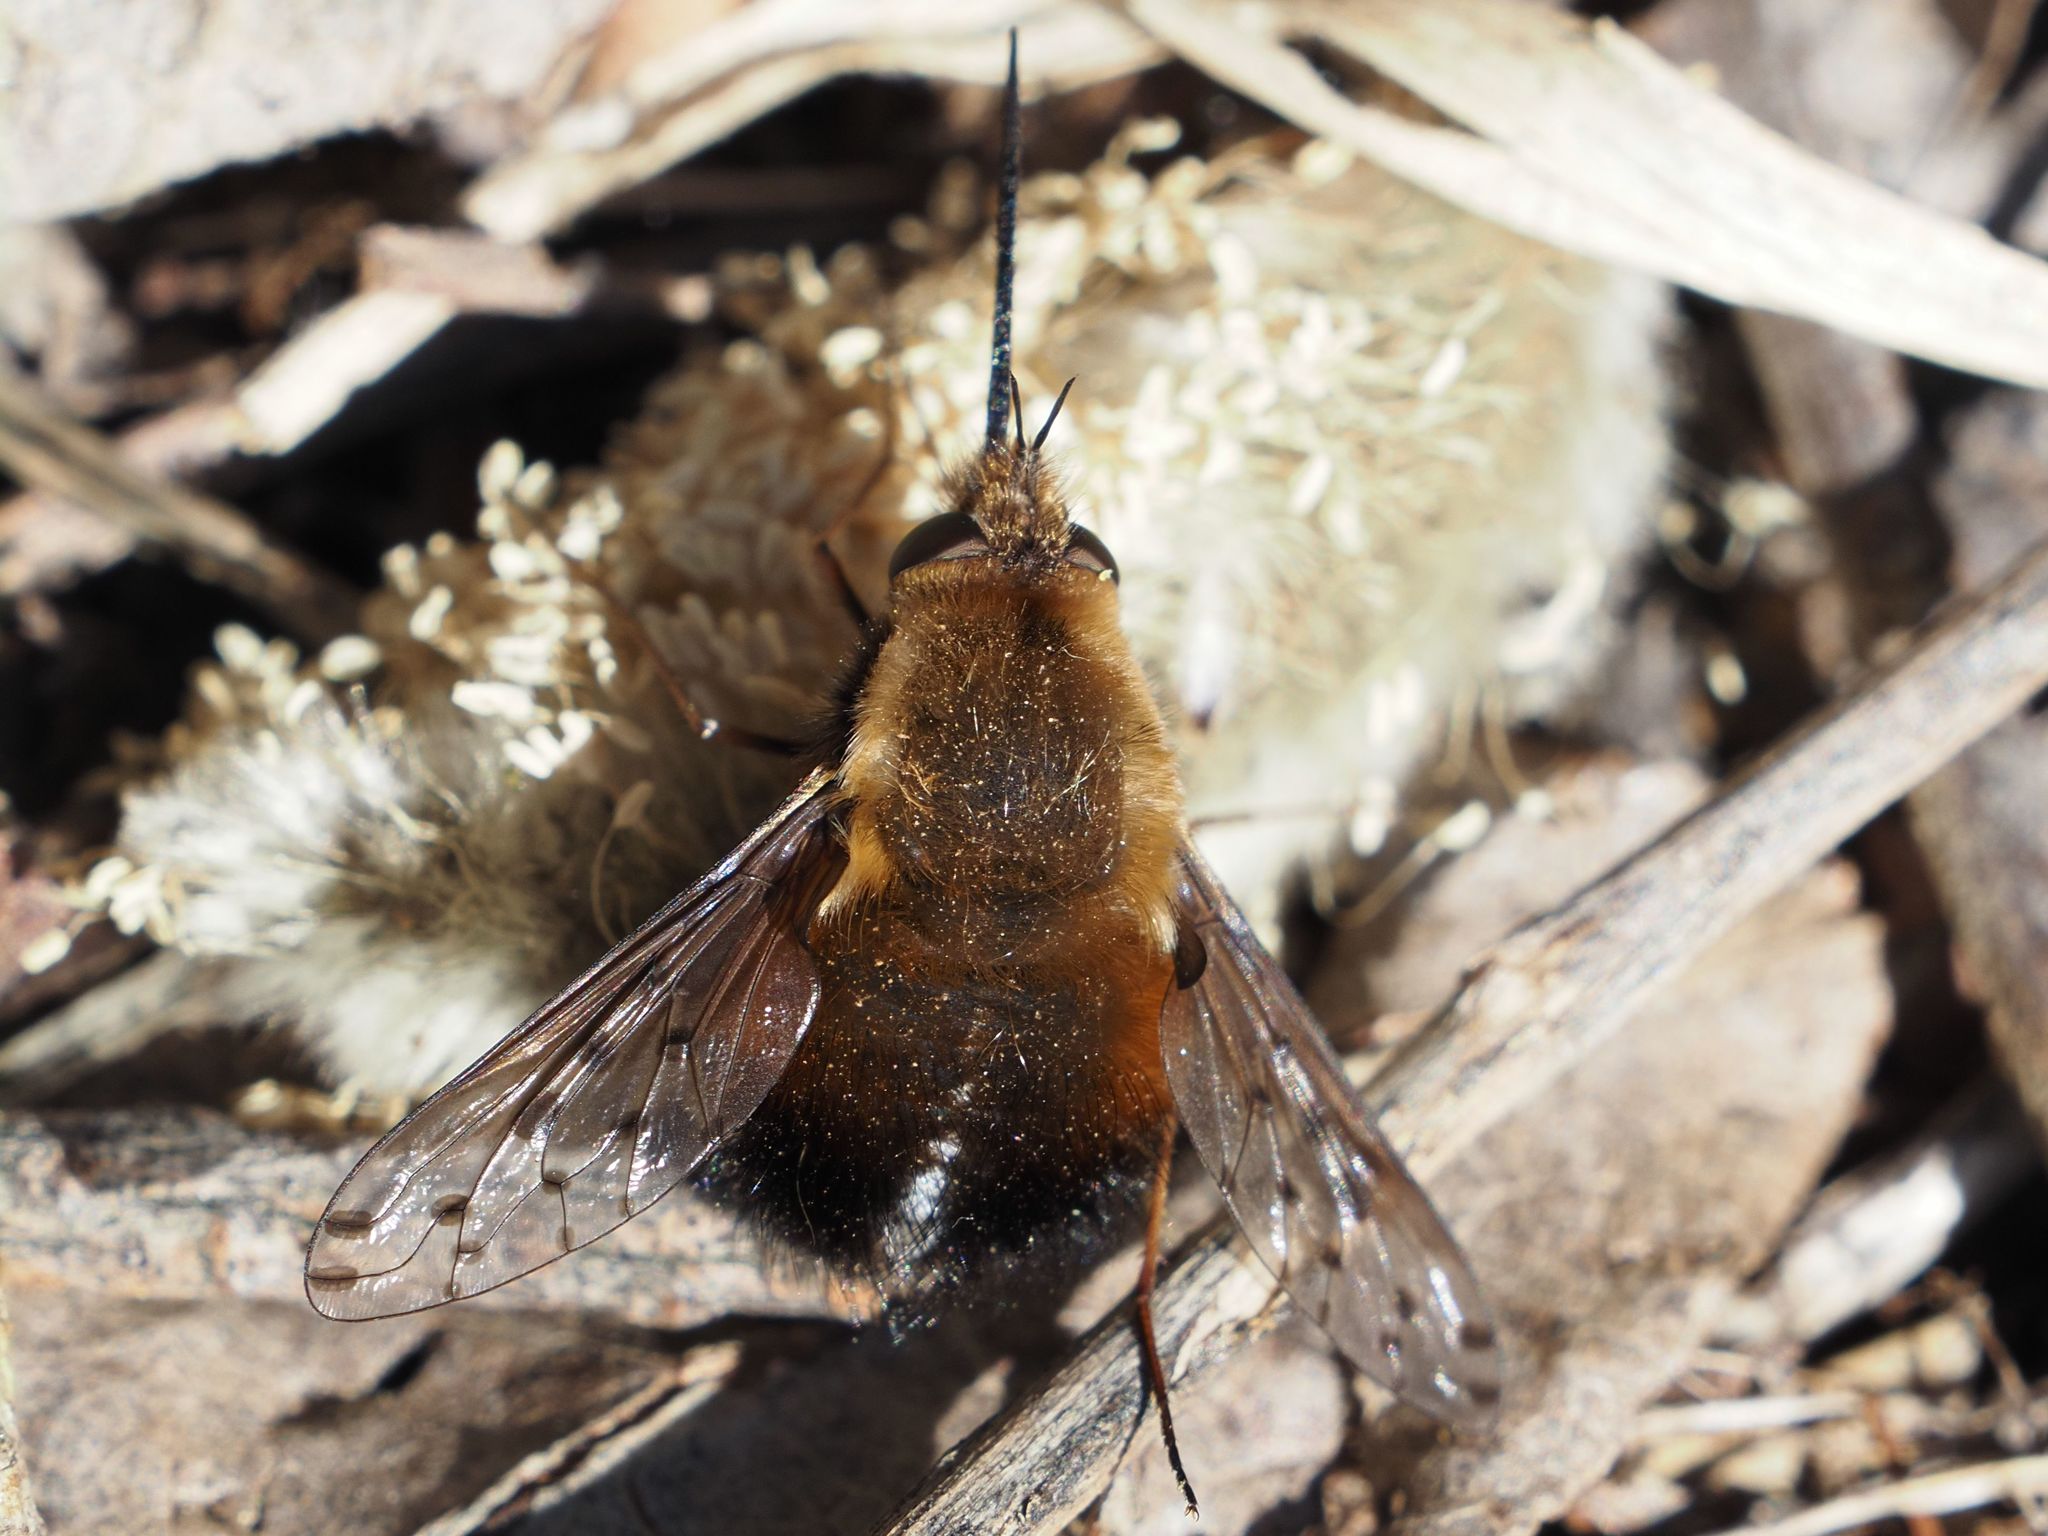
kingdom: Animalia
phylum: Arthropoda
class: Insecta
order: Diptera
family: Bombyliidae
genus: Bombylius
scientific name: Bombylius discolor
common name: Dotted bee-fly
